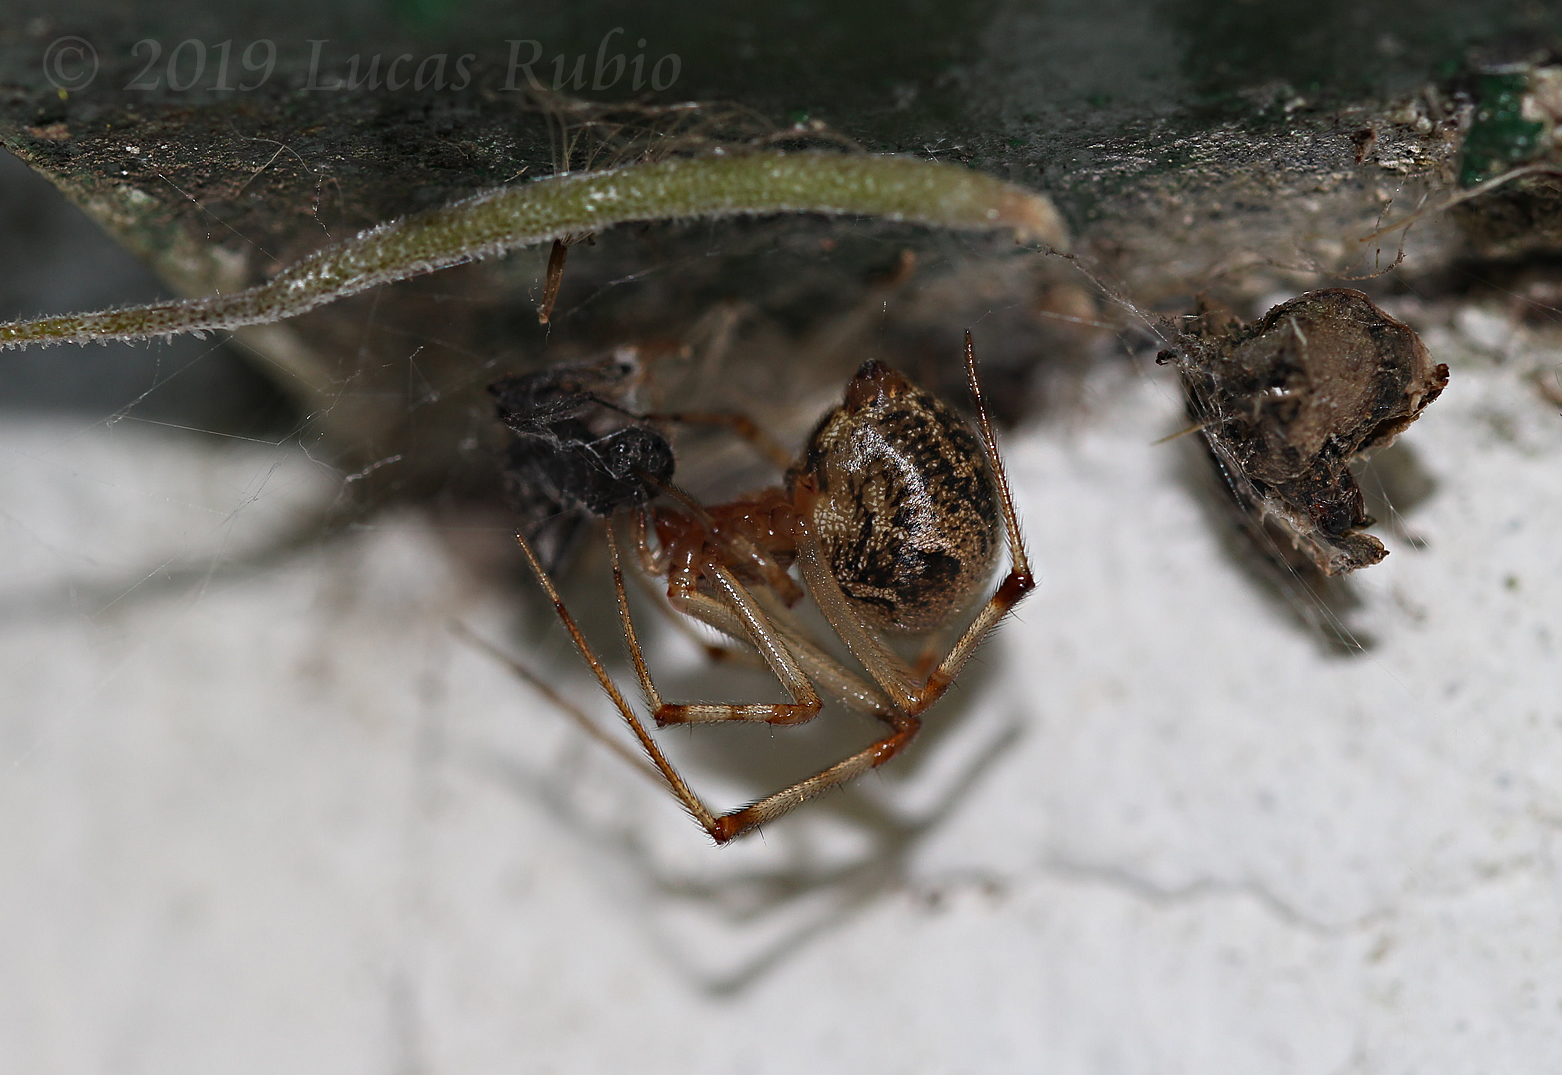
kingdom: Animalia
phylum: Arthropoda
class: Arachnida
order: Araneae
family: Theridiidae
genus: Parasteatoda
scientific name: Parasteatoda tepidariorum
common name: Common house spider
